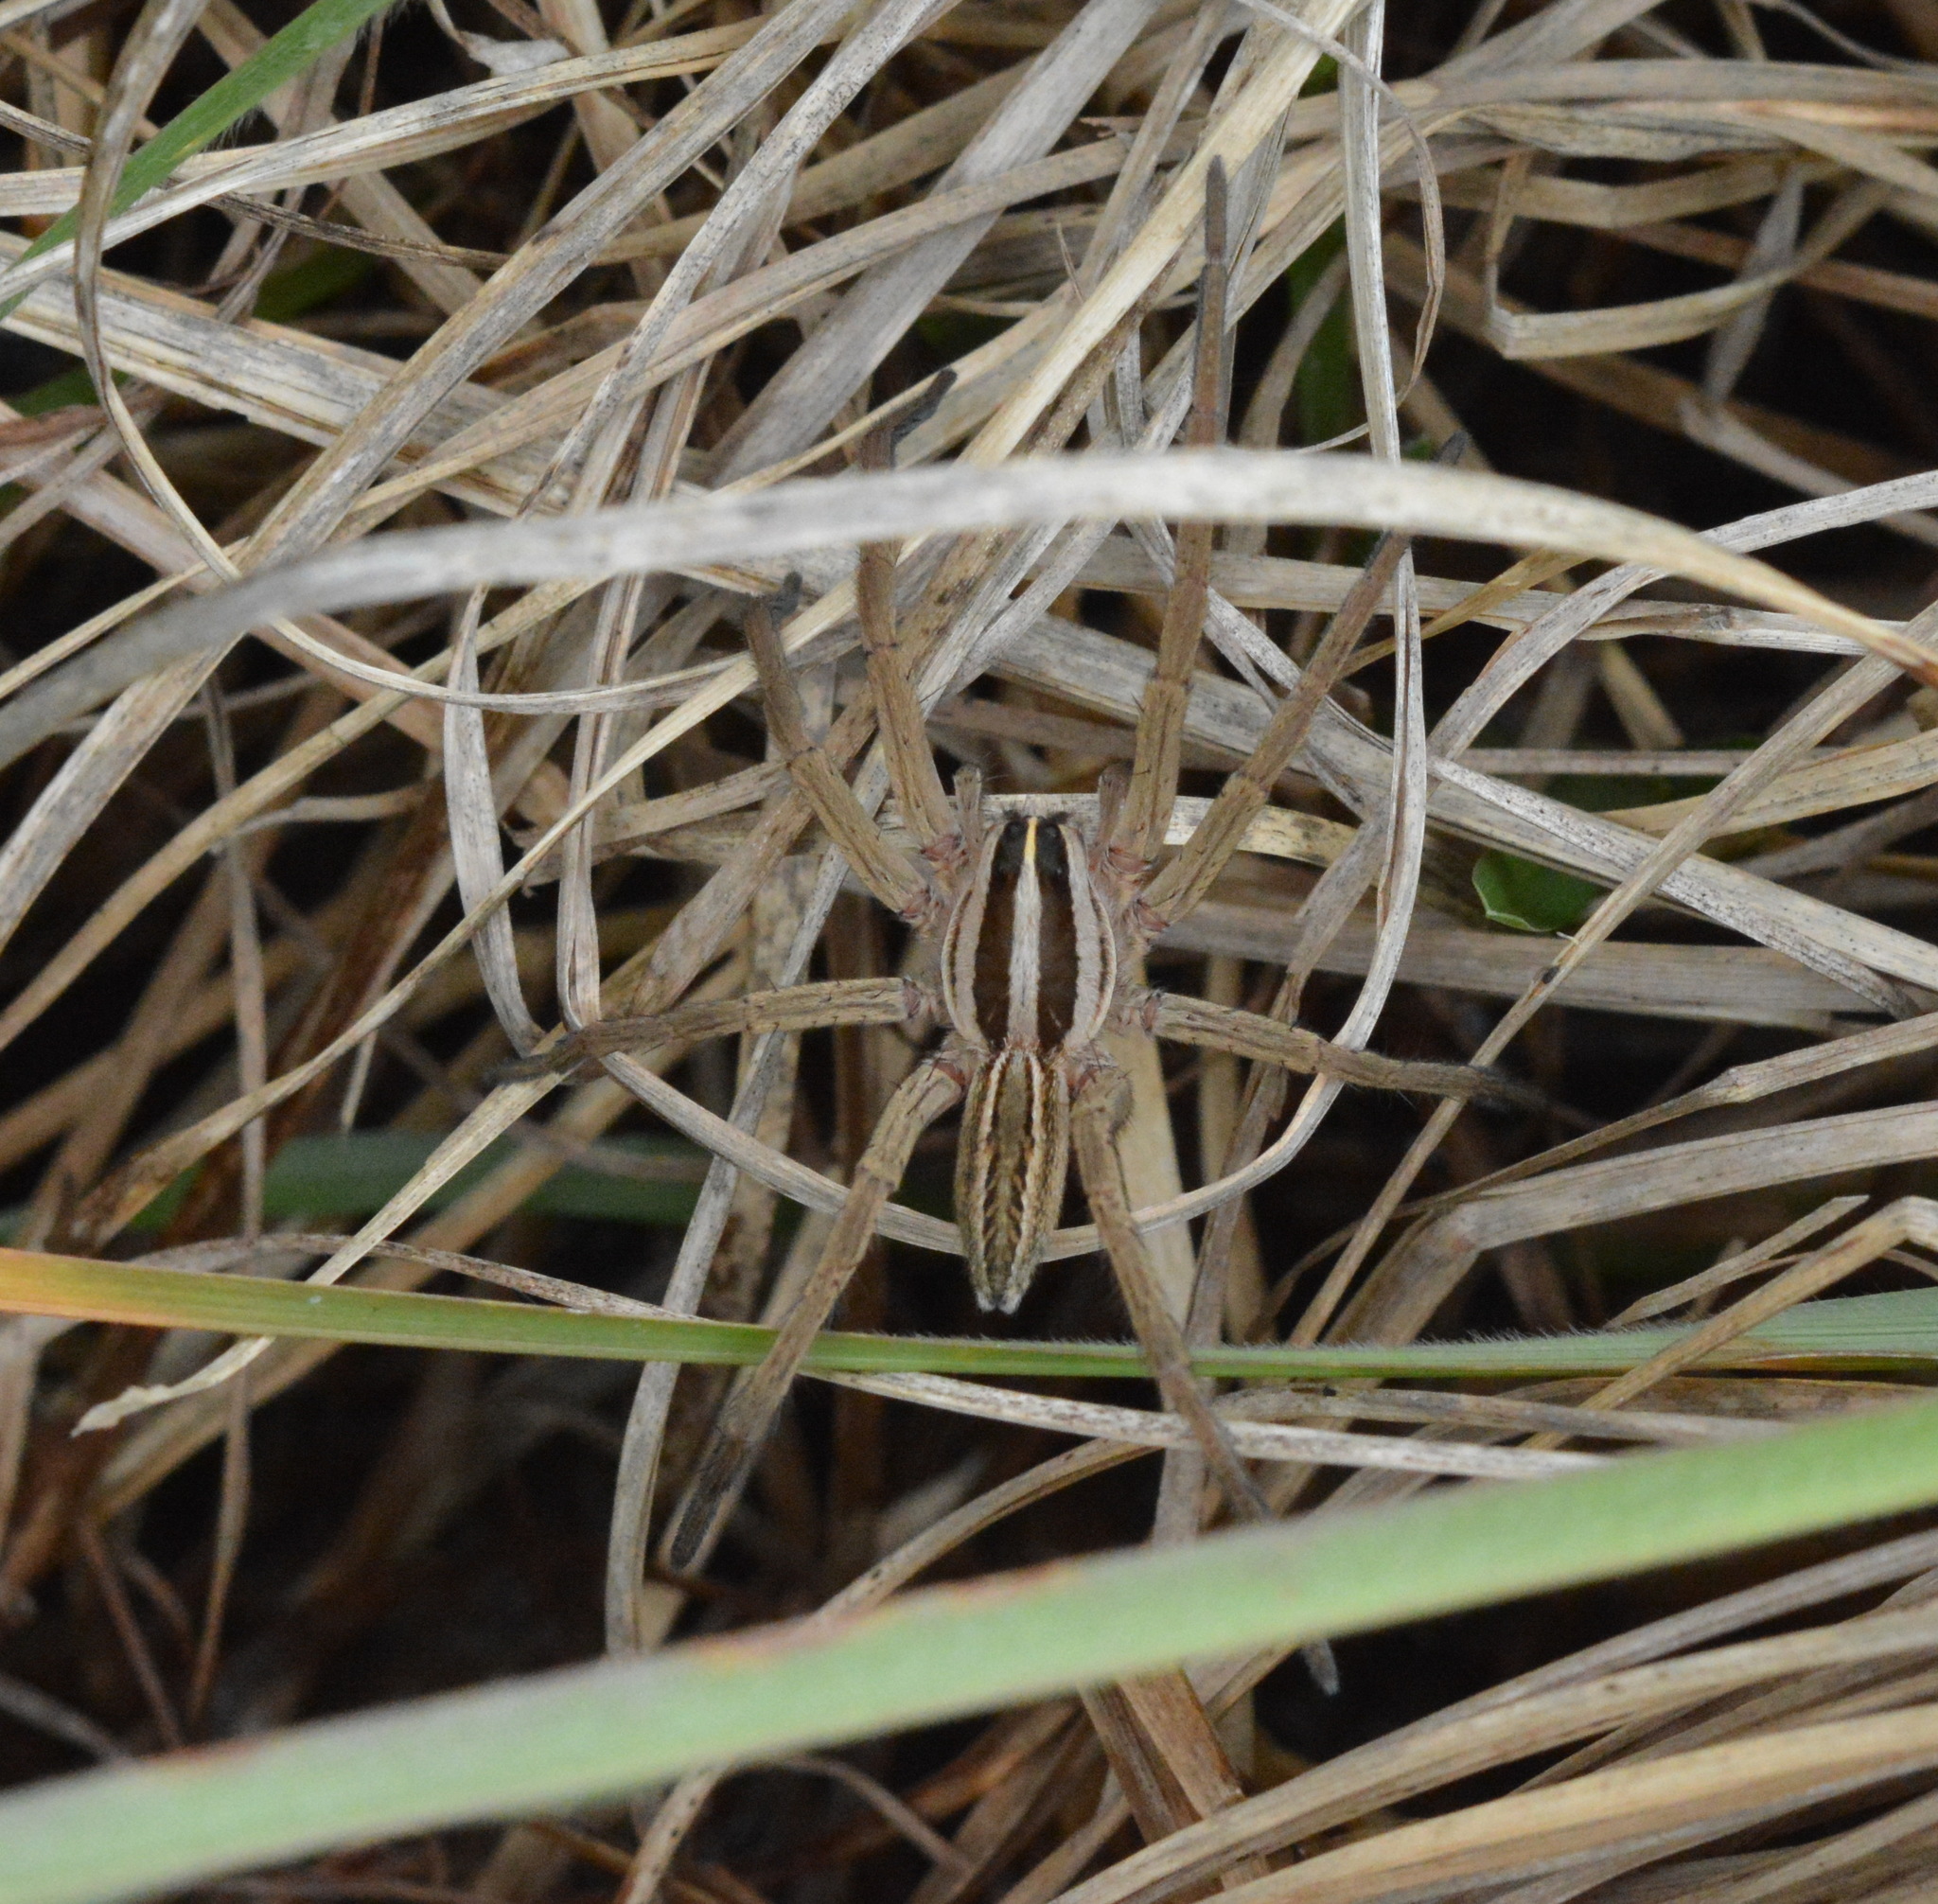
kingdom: Animalia
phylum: Arthropoda
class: Arachnida
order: Araneae
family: Lycosidae
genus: Rabidosa
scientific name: Rabidosa rabida
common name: Rabid wolf spider
